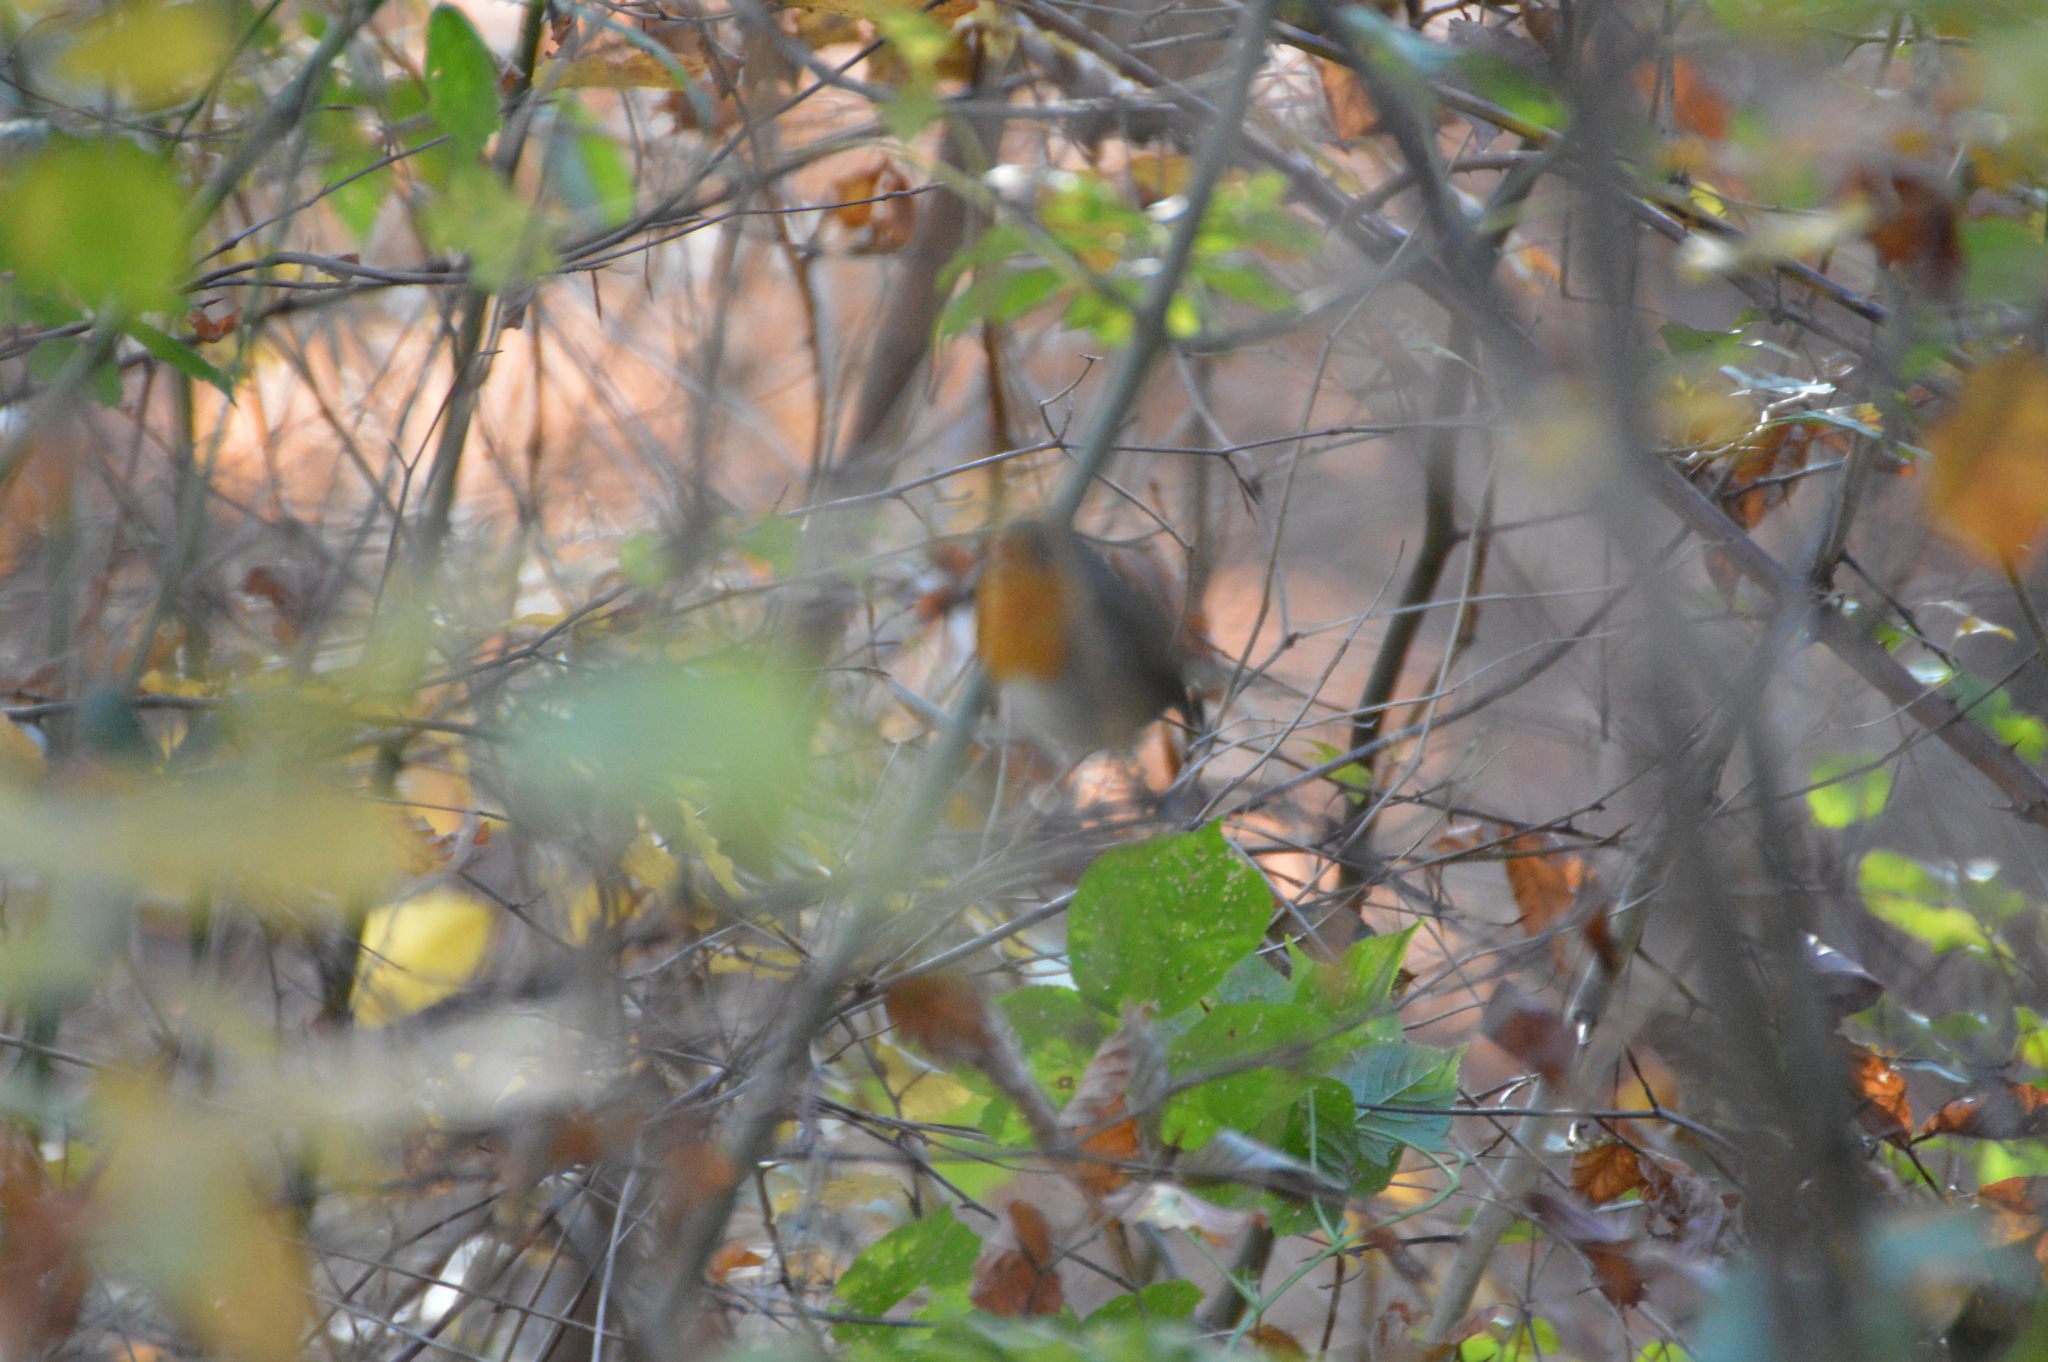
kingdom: Animalia
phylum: Chordata
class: Aves
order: Passeriformes
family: Muscicapidae
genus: Erithacus
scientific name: Erithacus rubecula
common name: European robin
